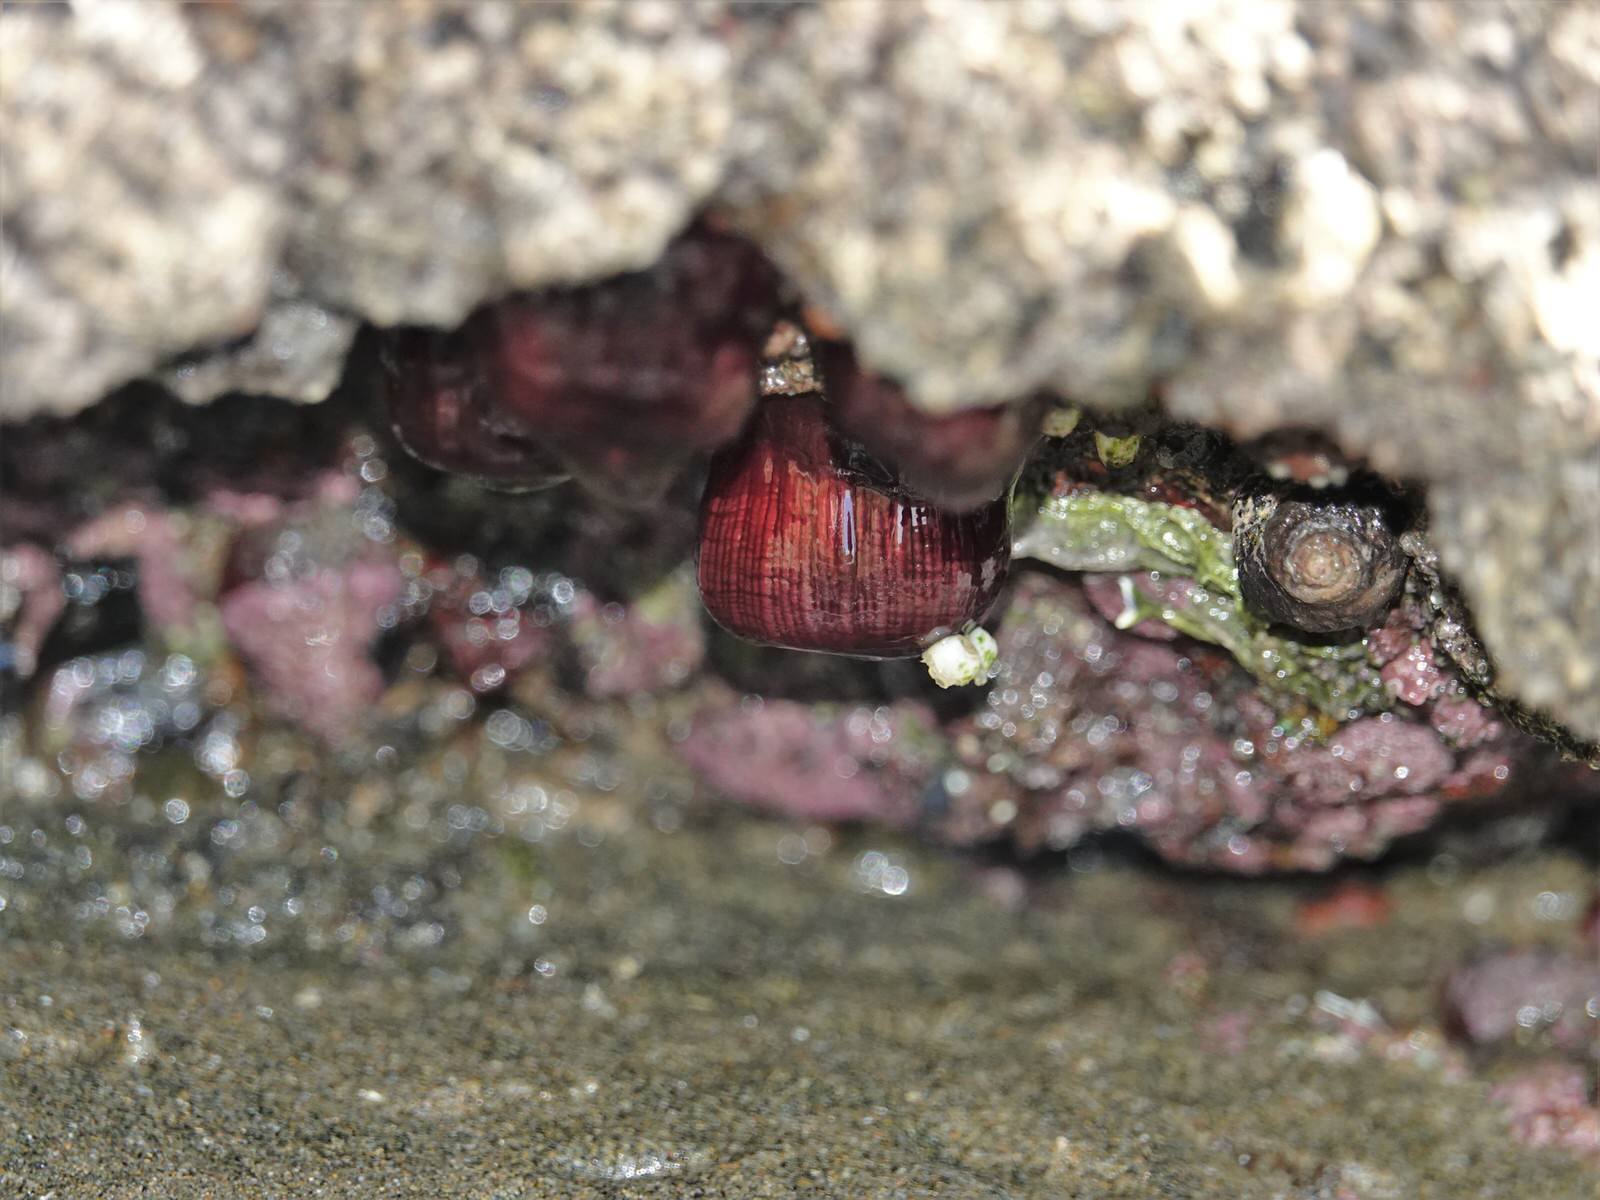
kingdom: Animalia
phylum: Cnidaria
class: Anthozoa
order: Actiniaria
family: Actiniidae
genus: Actinia
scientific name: Actinia tenebrosa
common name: Waratah anemone
